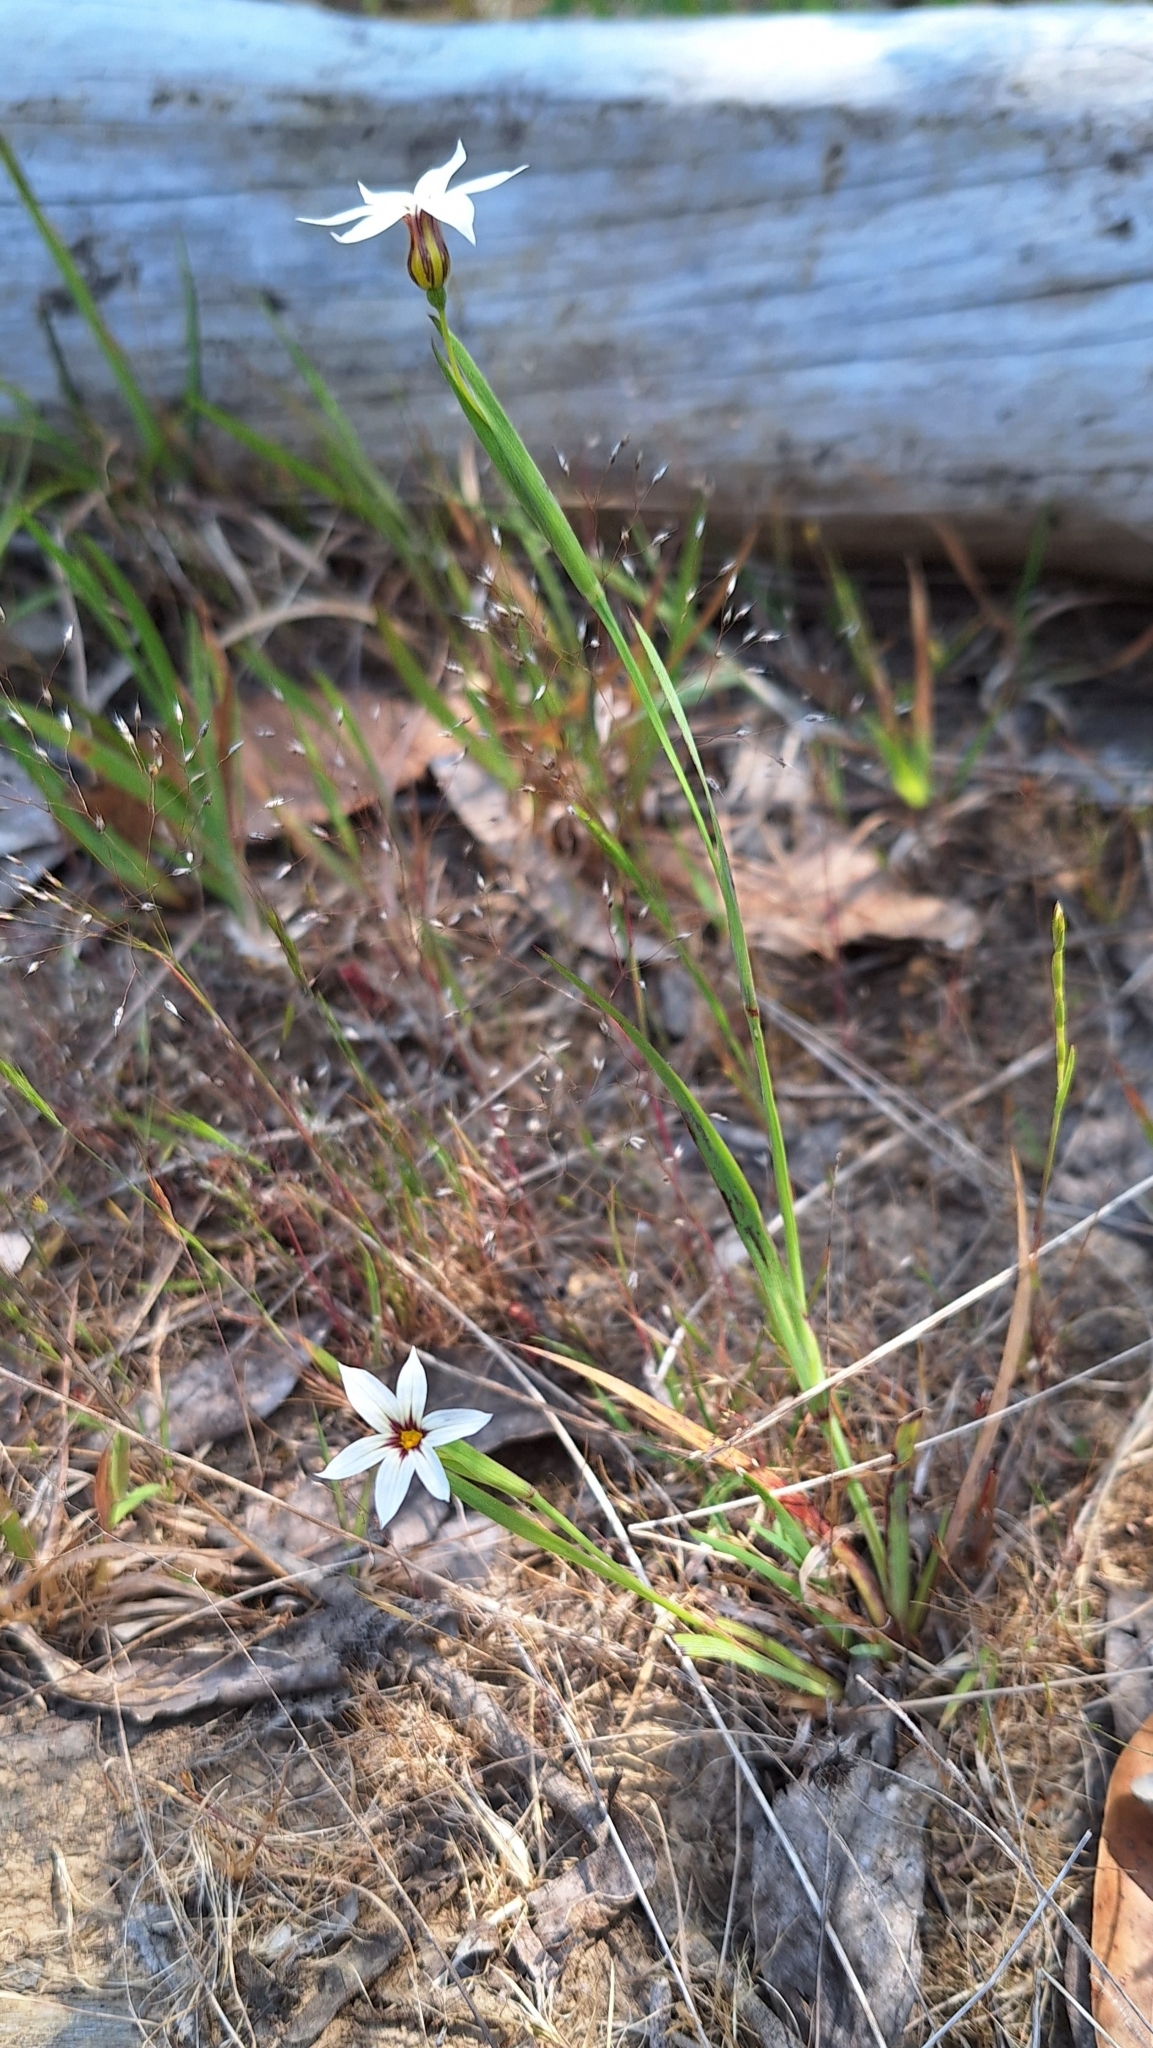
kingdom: Plantae
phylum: Tracheophyta
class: Liliopsida
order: Asparagales
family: Iridaceae
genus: Sisyrinchium
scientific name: Sisyrinchium micranthum
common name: Bermuda pigroot
